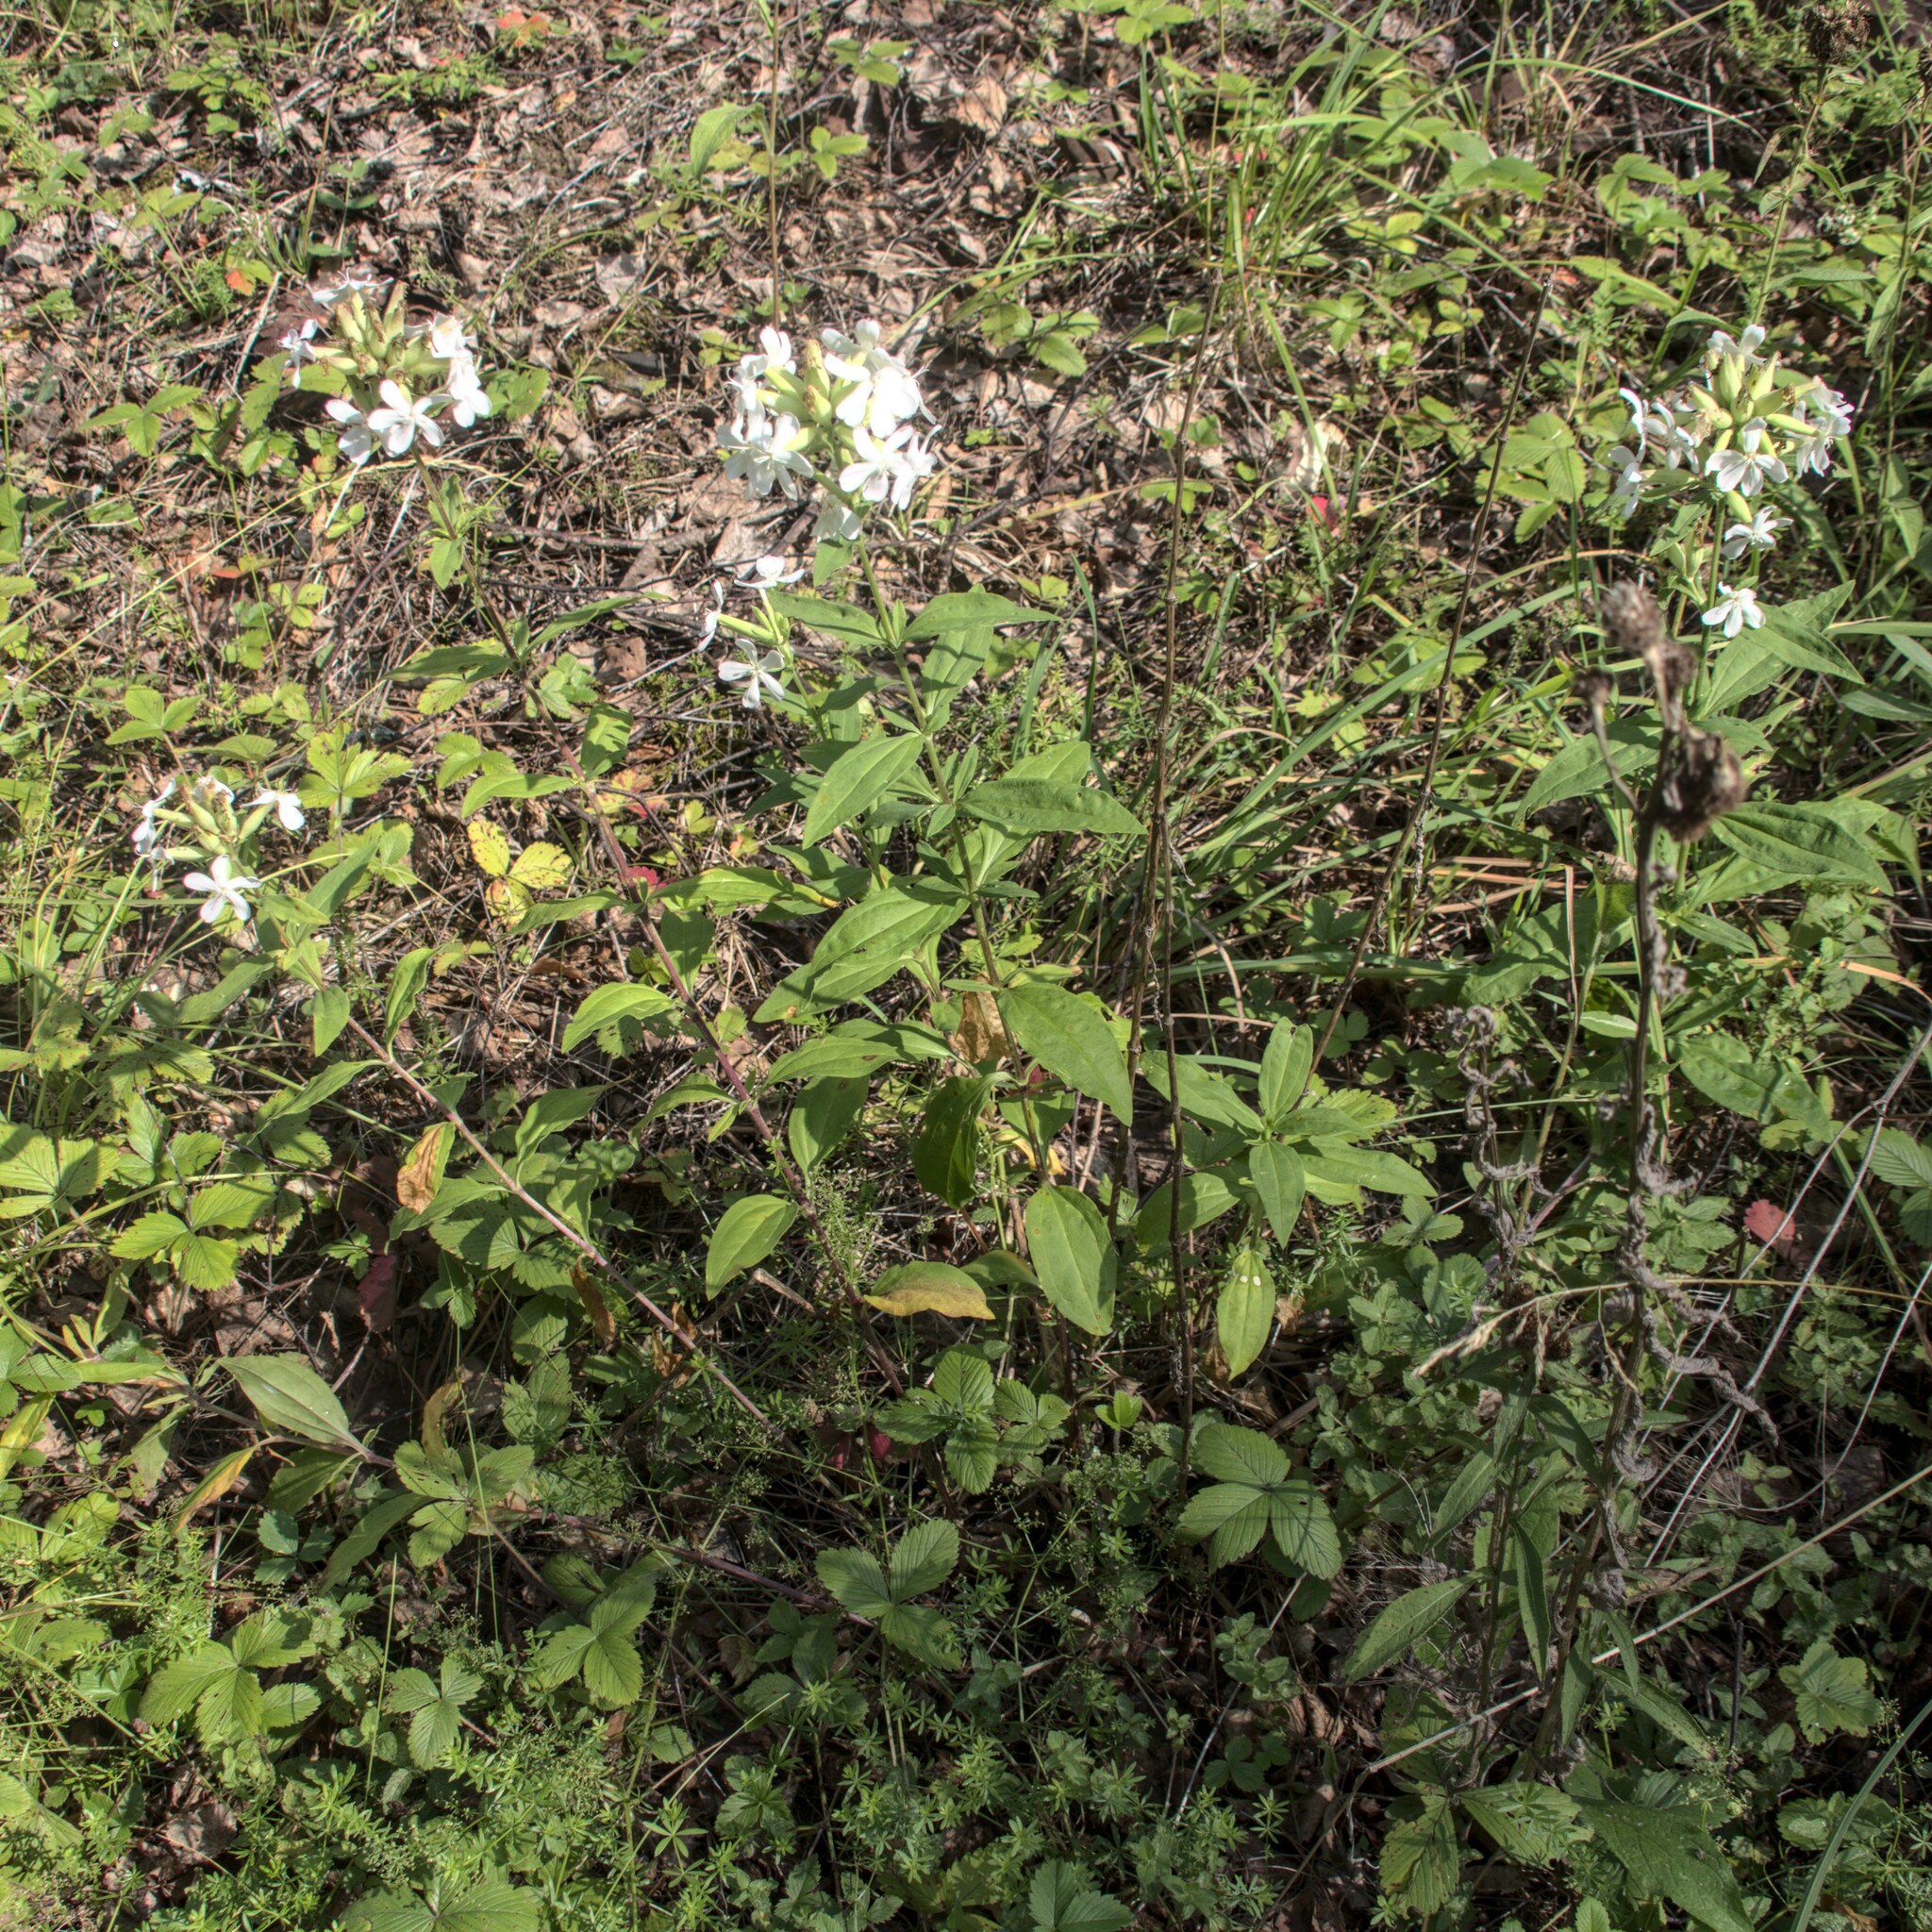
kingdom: Plantae
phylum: Tracheophyta
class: Magnoliopsida
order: Caryophyllales
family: Caryophyllaceae
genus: Saponaria
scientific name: Saponaria officinalis
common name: Soapwort
